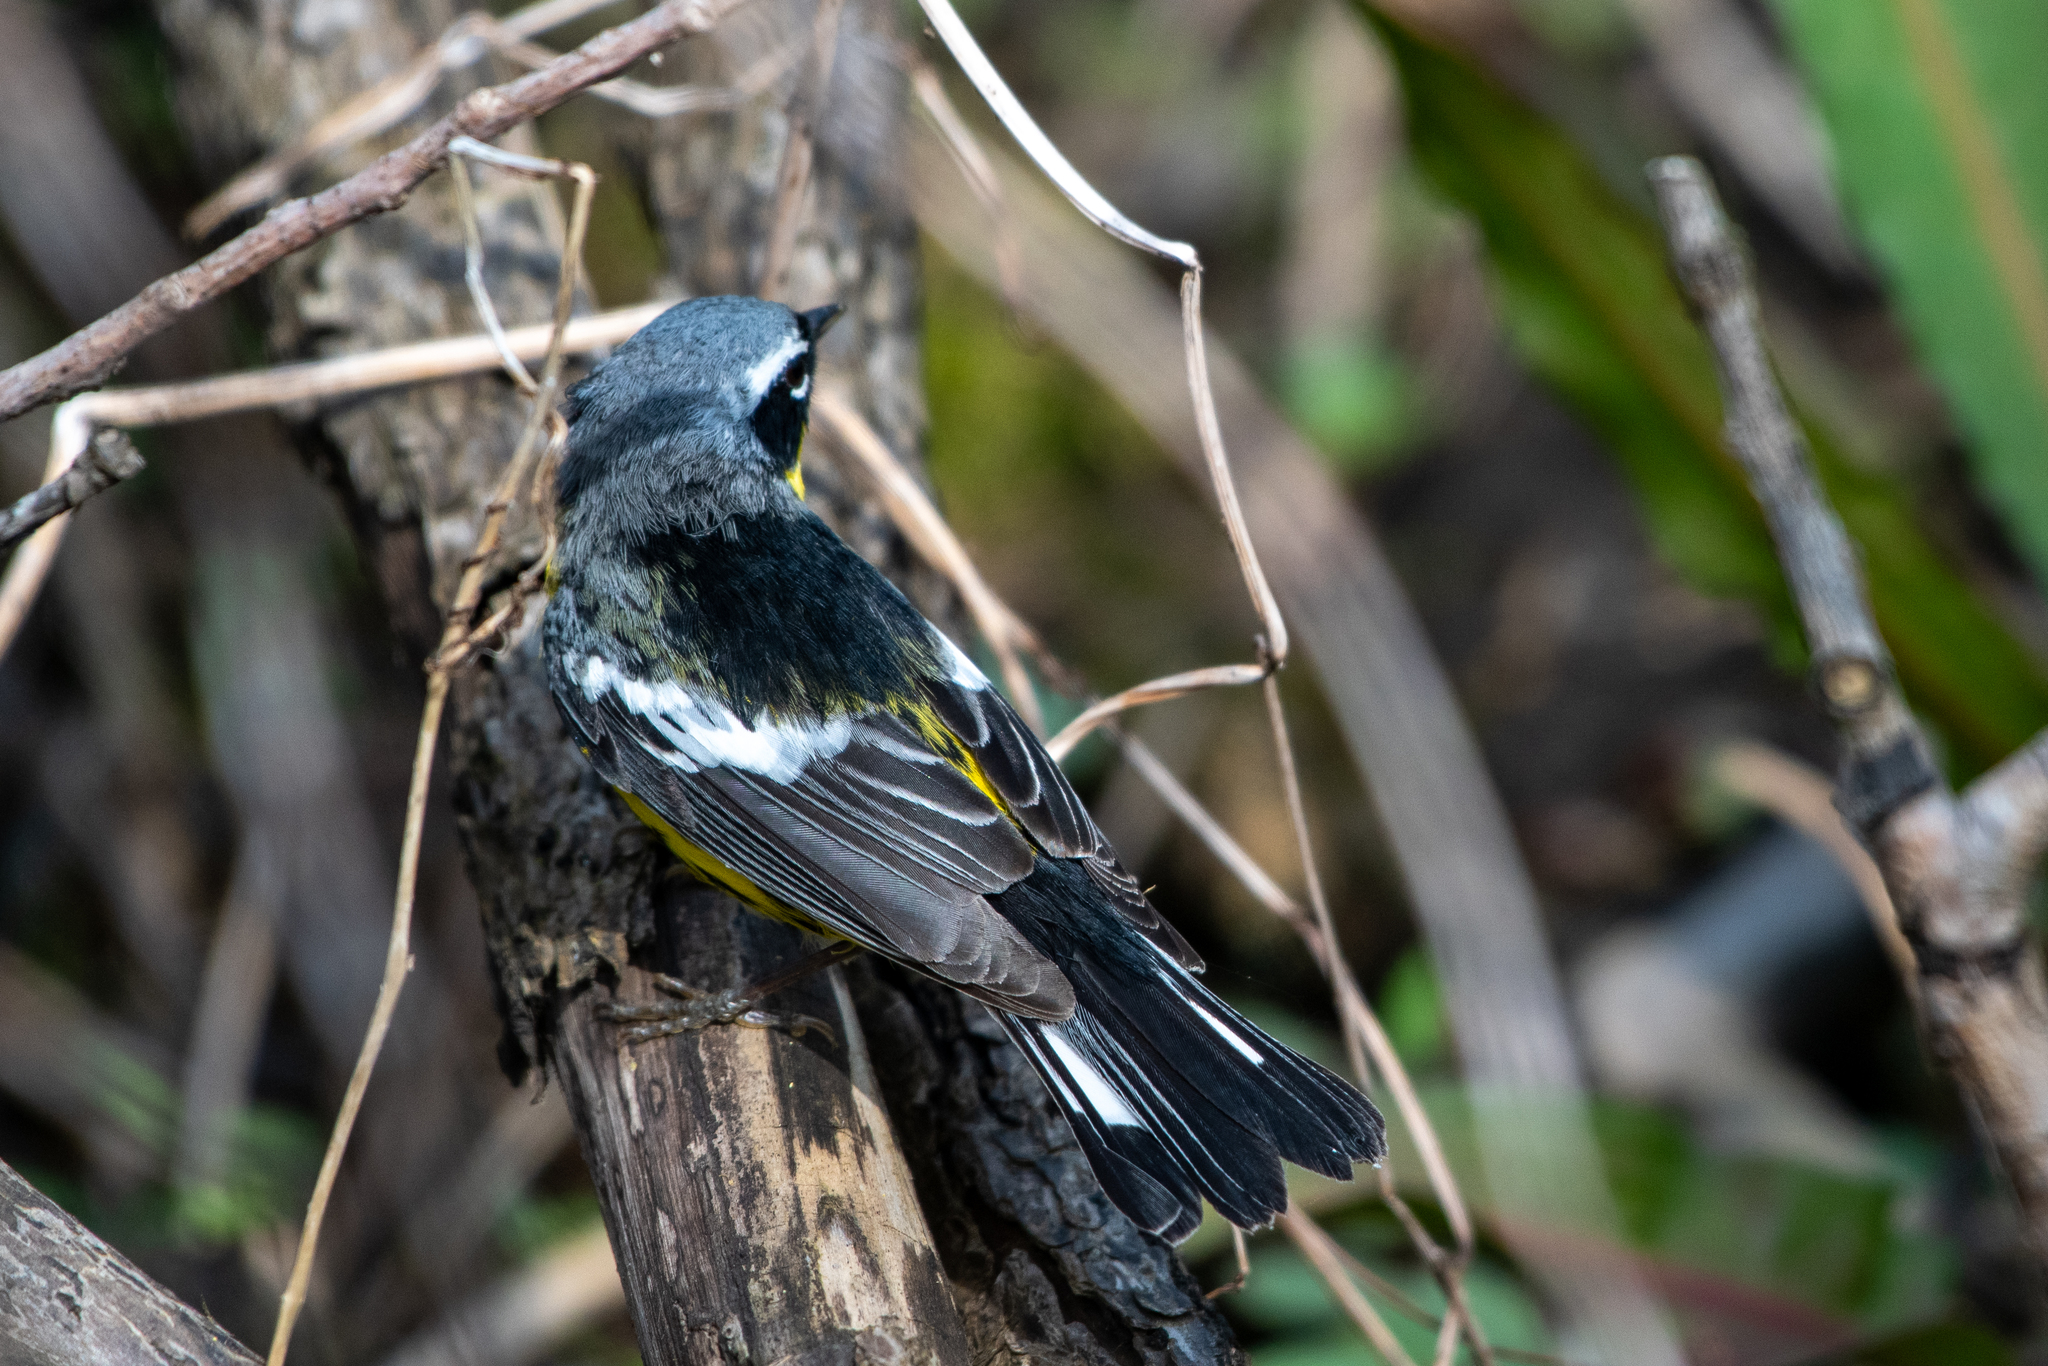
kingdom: Animalia
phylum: Chordata
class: Aves
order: Passeriformes
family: Parulidae
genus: Setophaga
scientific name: Setophaga magnolia
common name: Magnolia warbler
